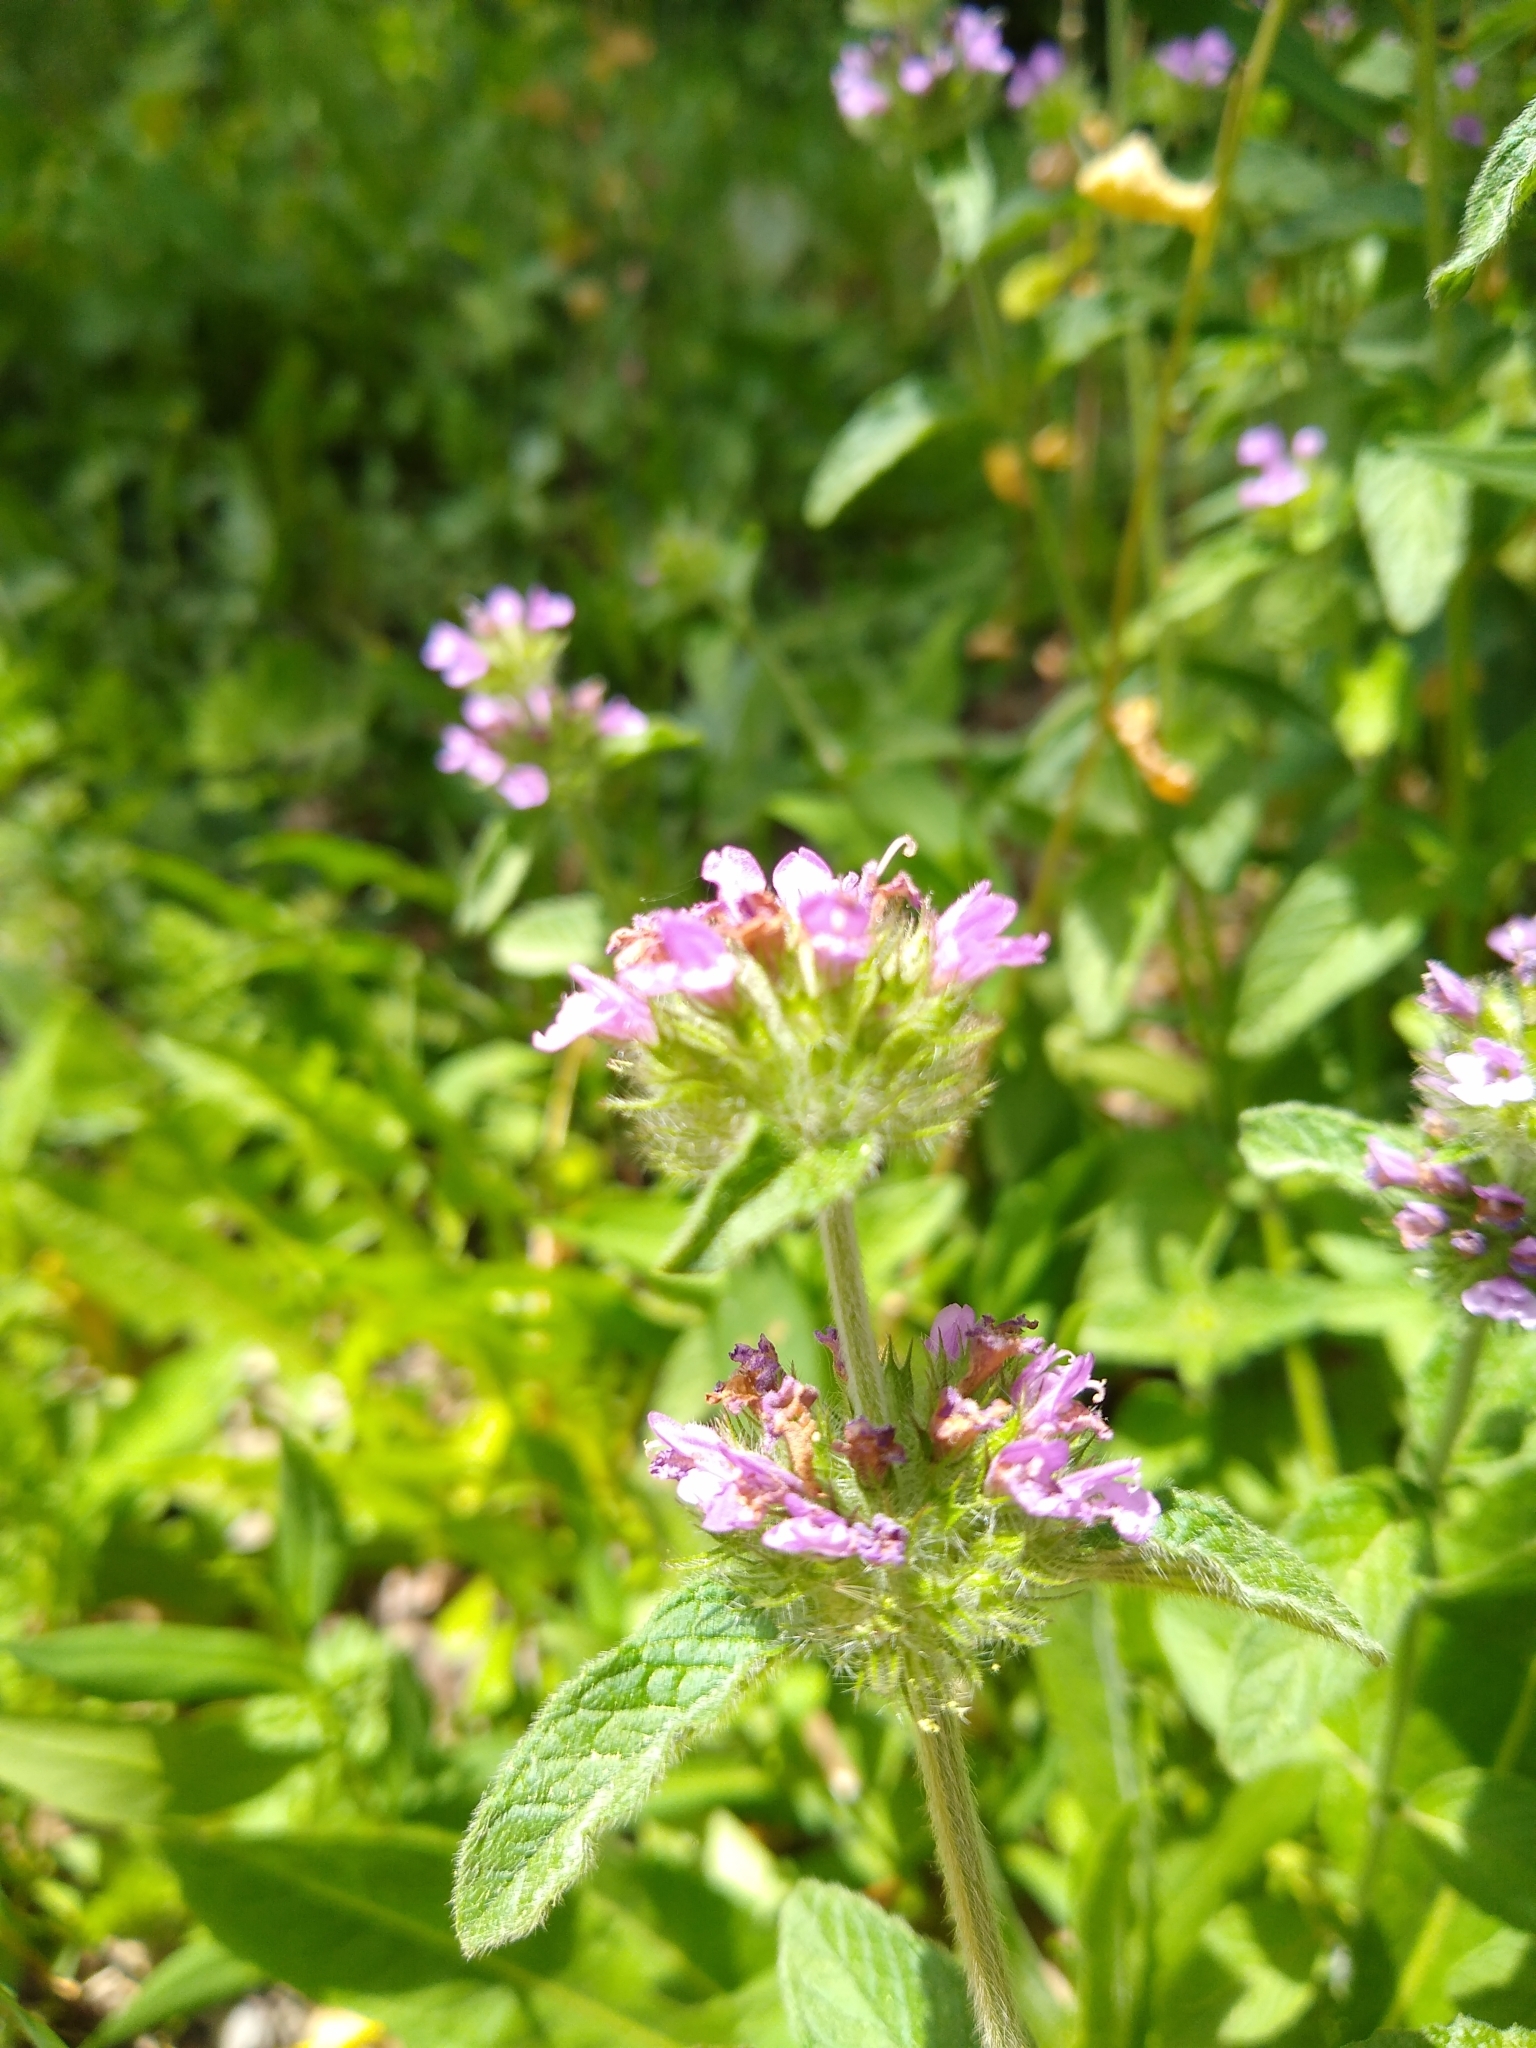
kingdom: Plantae
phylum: Tracheophyta
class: Magnoliopsida
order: Lamiales
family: Lamiaceae
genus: Clinopodium
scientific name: Clinopodium vulgare
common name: Wild basil
